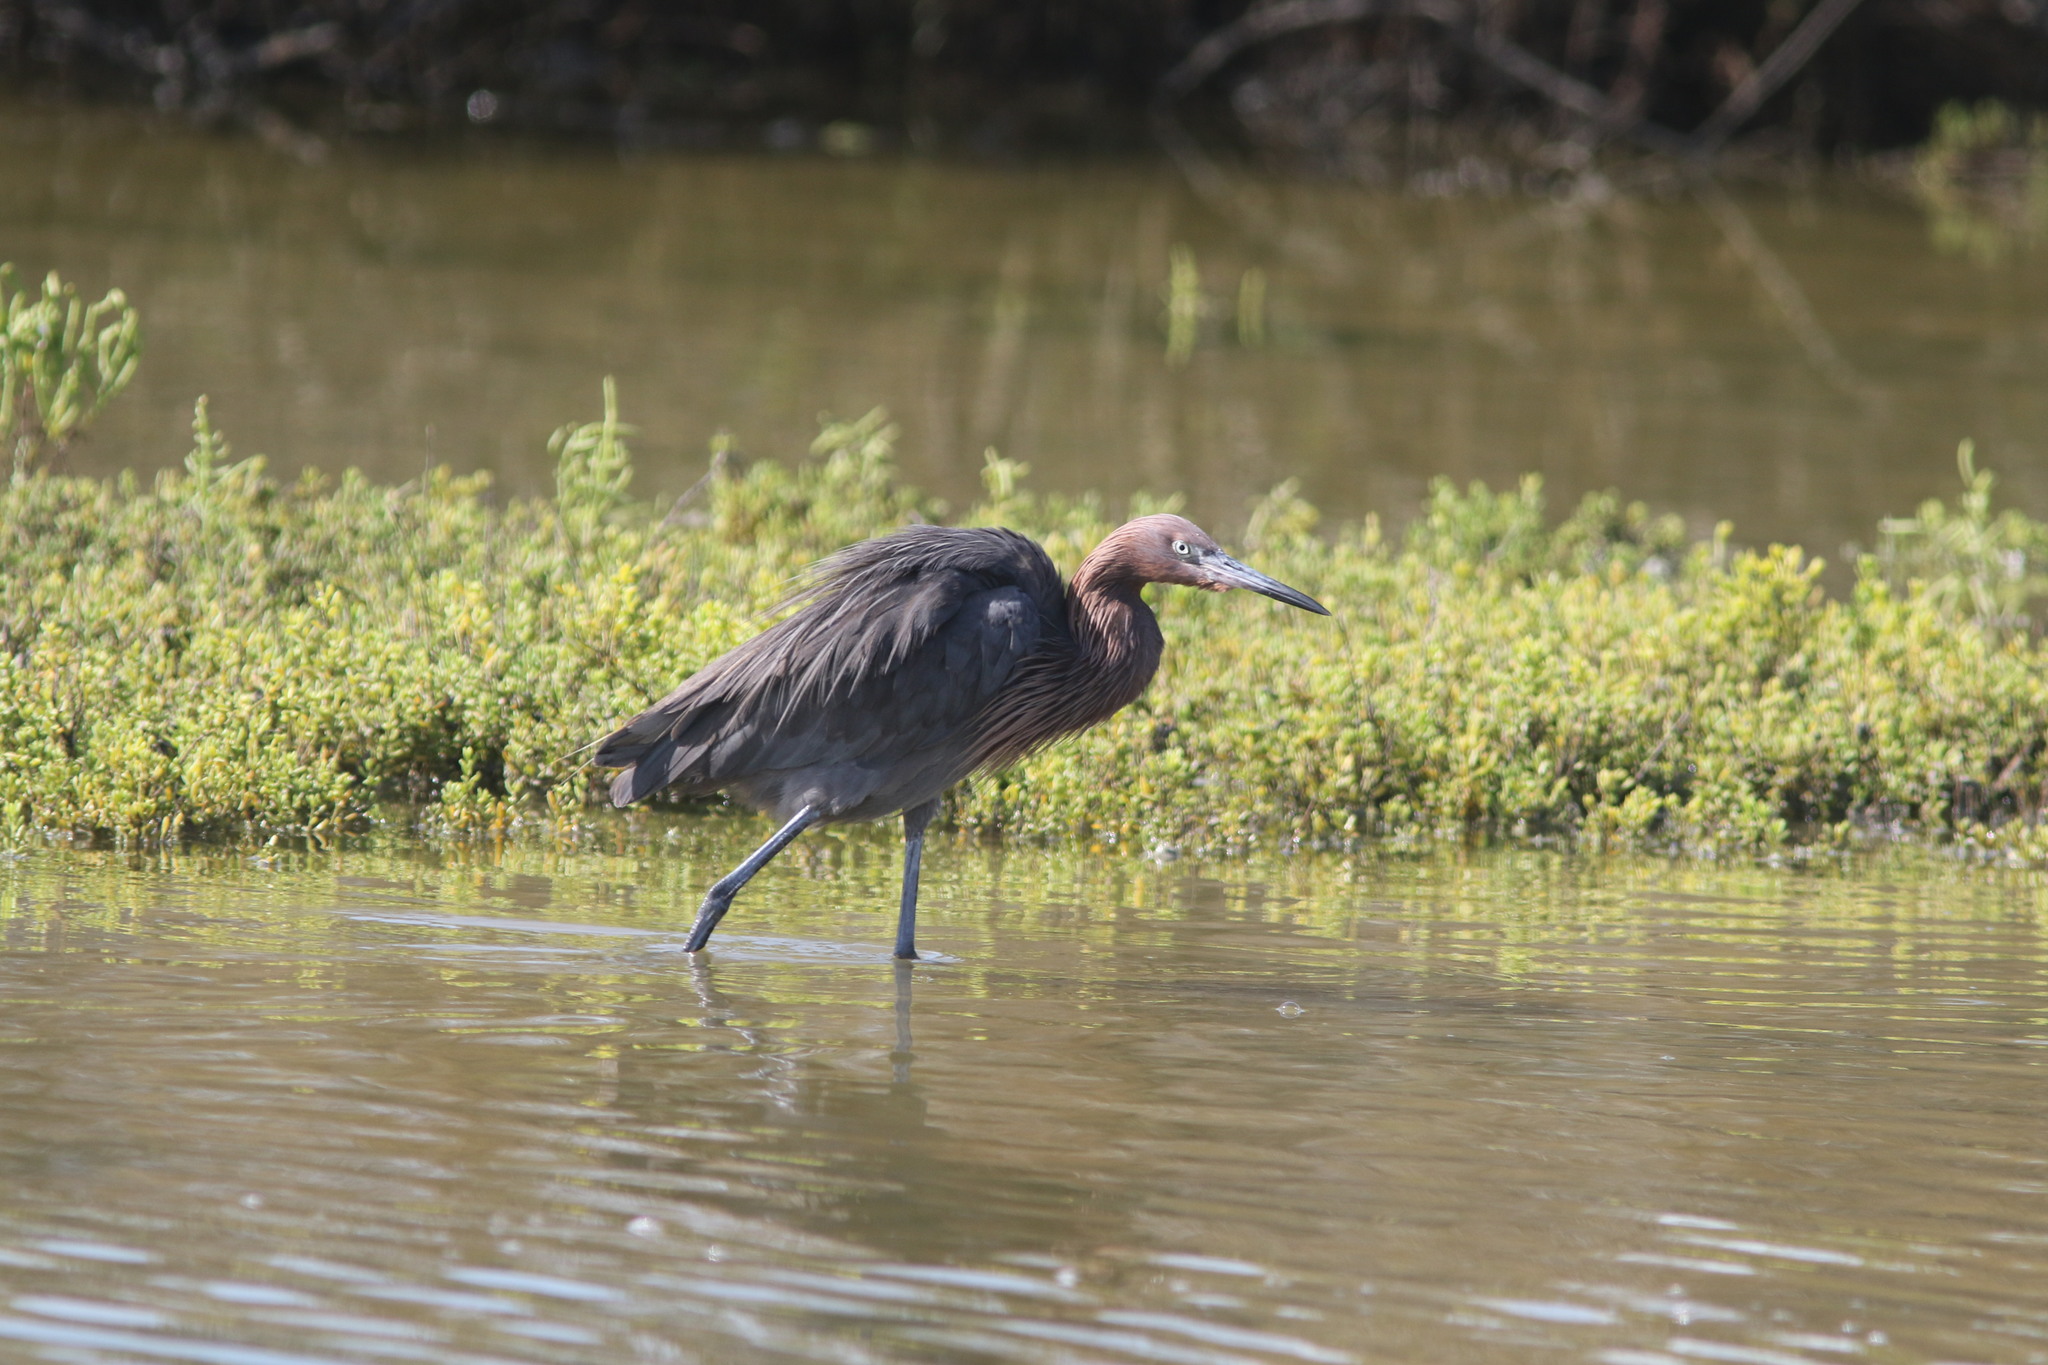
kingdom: Animalia
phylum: Chordata
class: Aves
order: Pelecaniformes
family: Ardeidae
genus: Egretta
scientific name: Egretta rufescens
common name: Reddish egret
